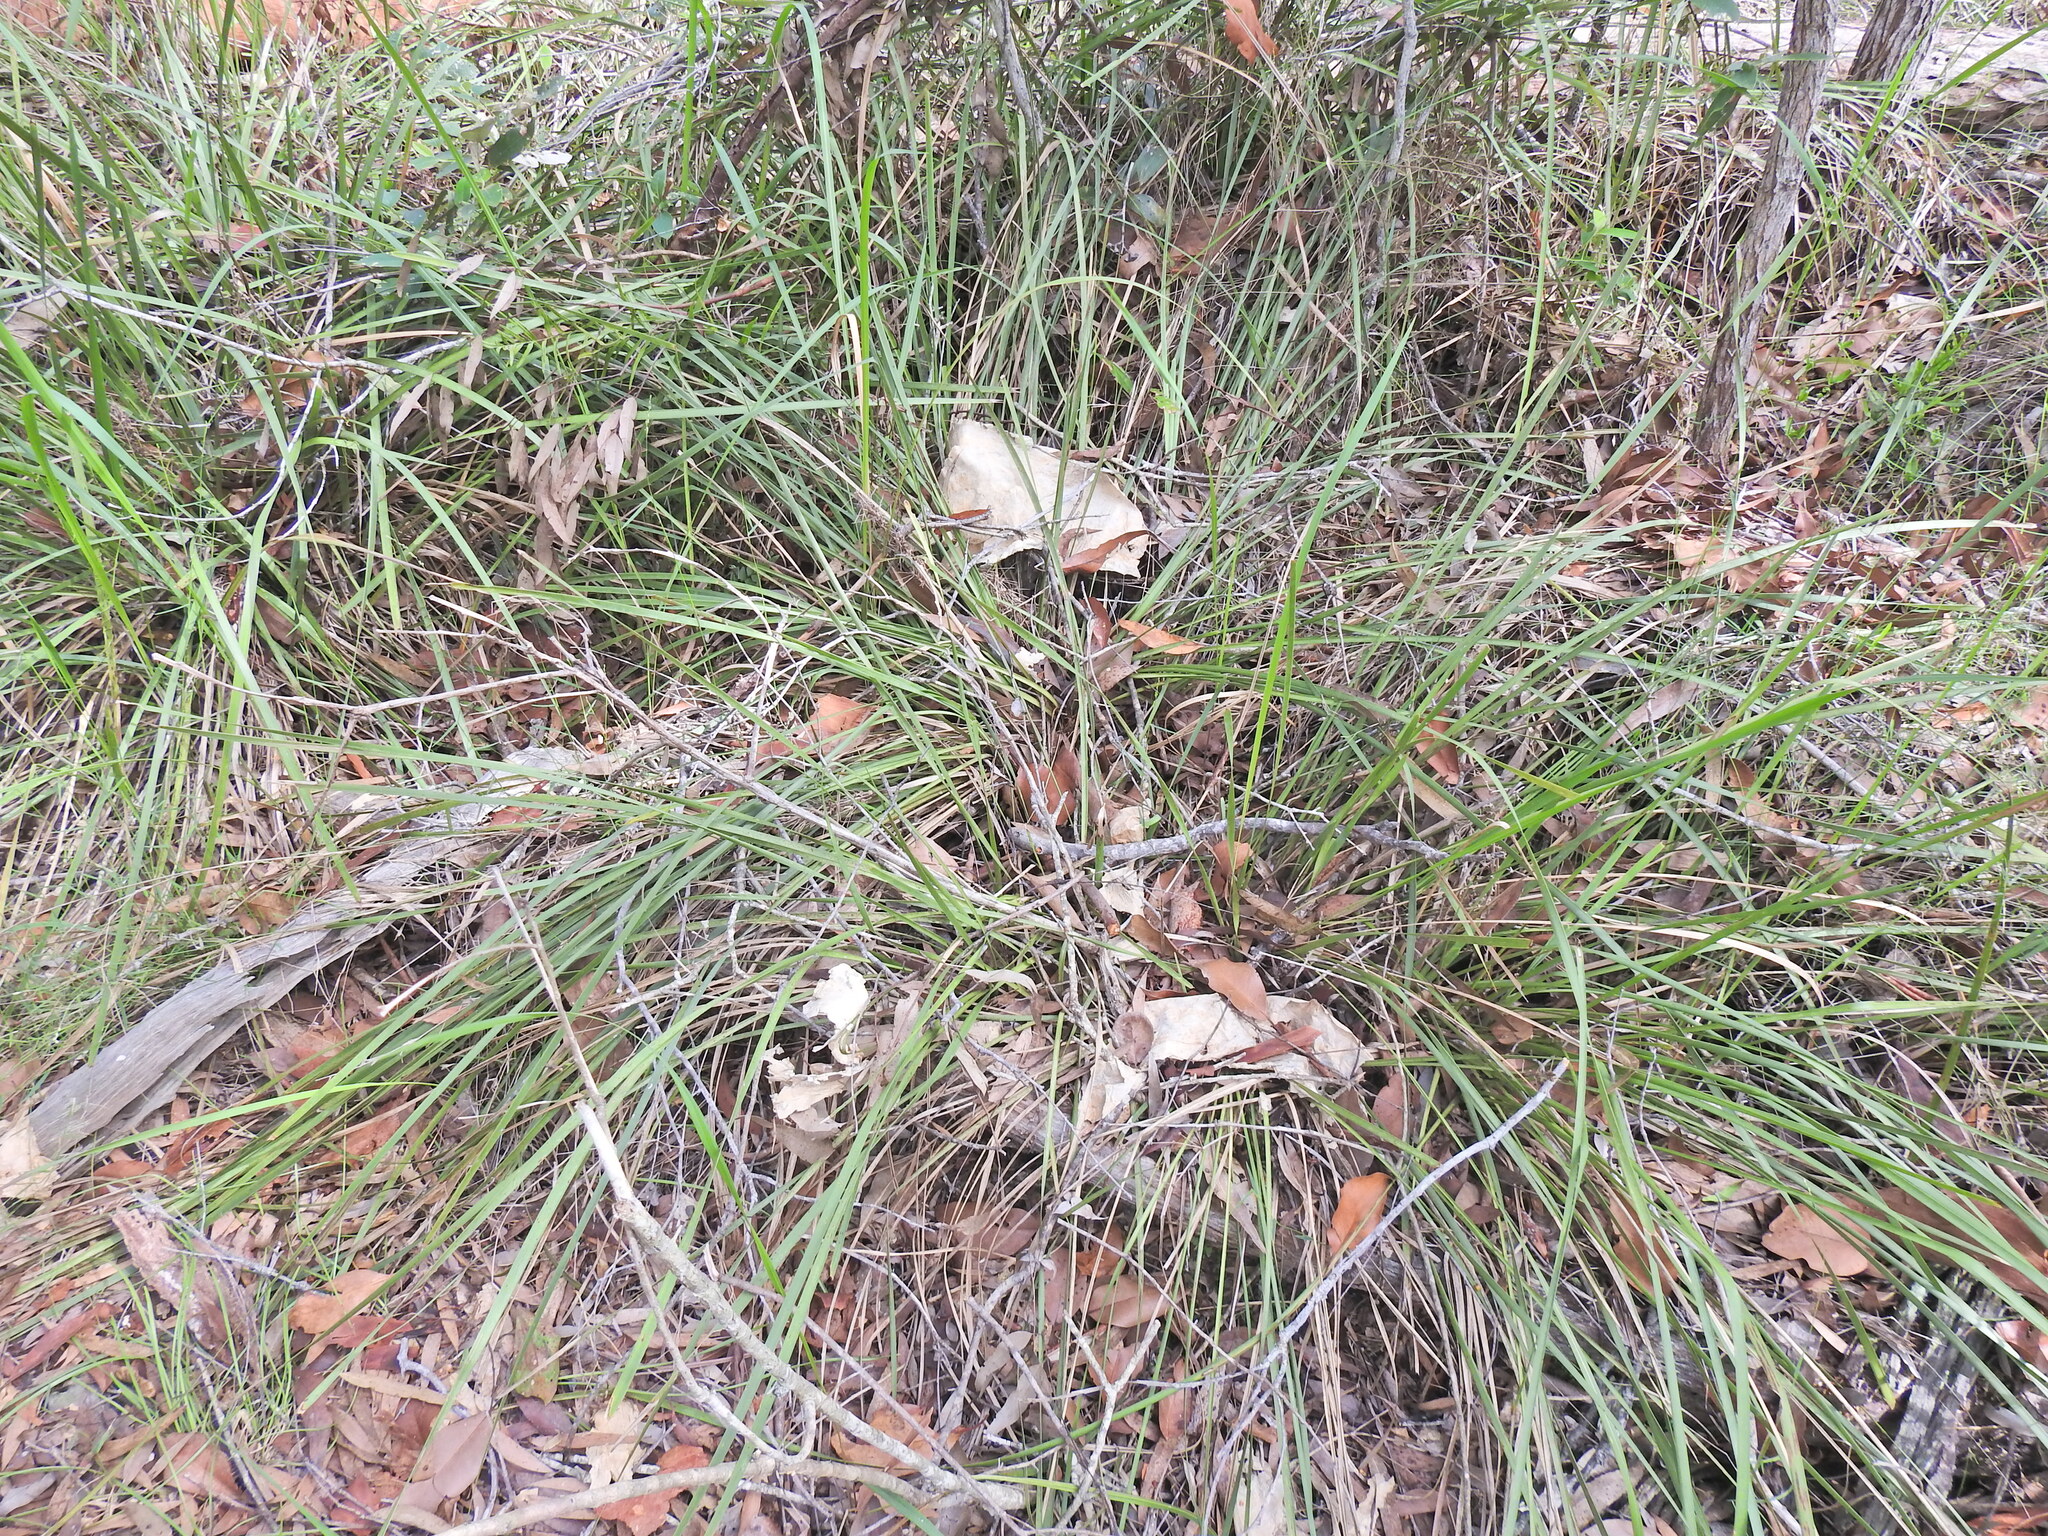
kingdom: Plantae
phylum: Tracheophyta
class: Liliopsida
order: Asparagales
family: Asparagaceae
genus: Lomandra
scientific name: Lomandra longifolia
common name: Longleaf mat-rush
